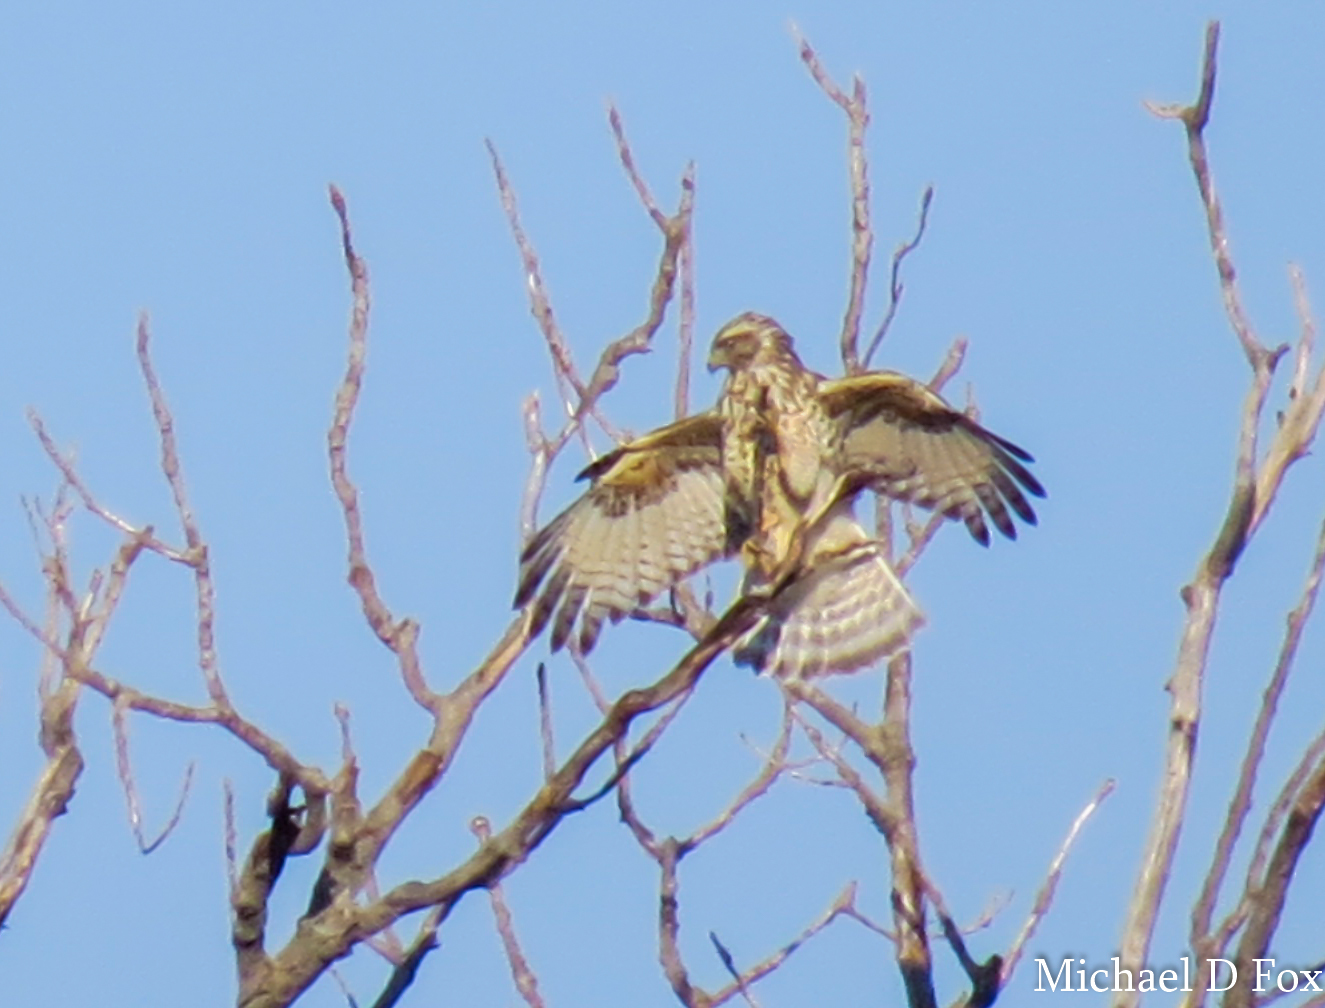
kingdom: Animalia
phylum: Chordata
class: Aves
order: Accipitriformes
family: Accipitridae
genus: Buteo
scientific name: Buteo lineatus
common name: Red-shouldered hawk
